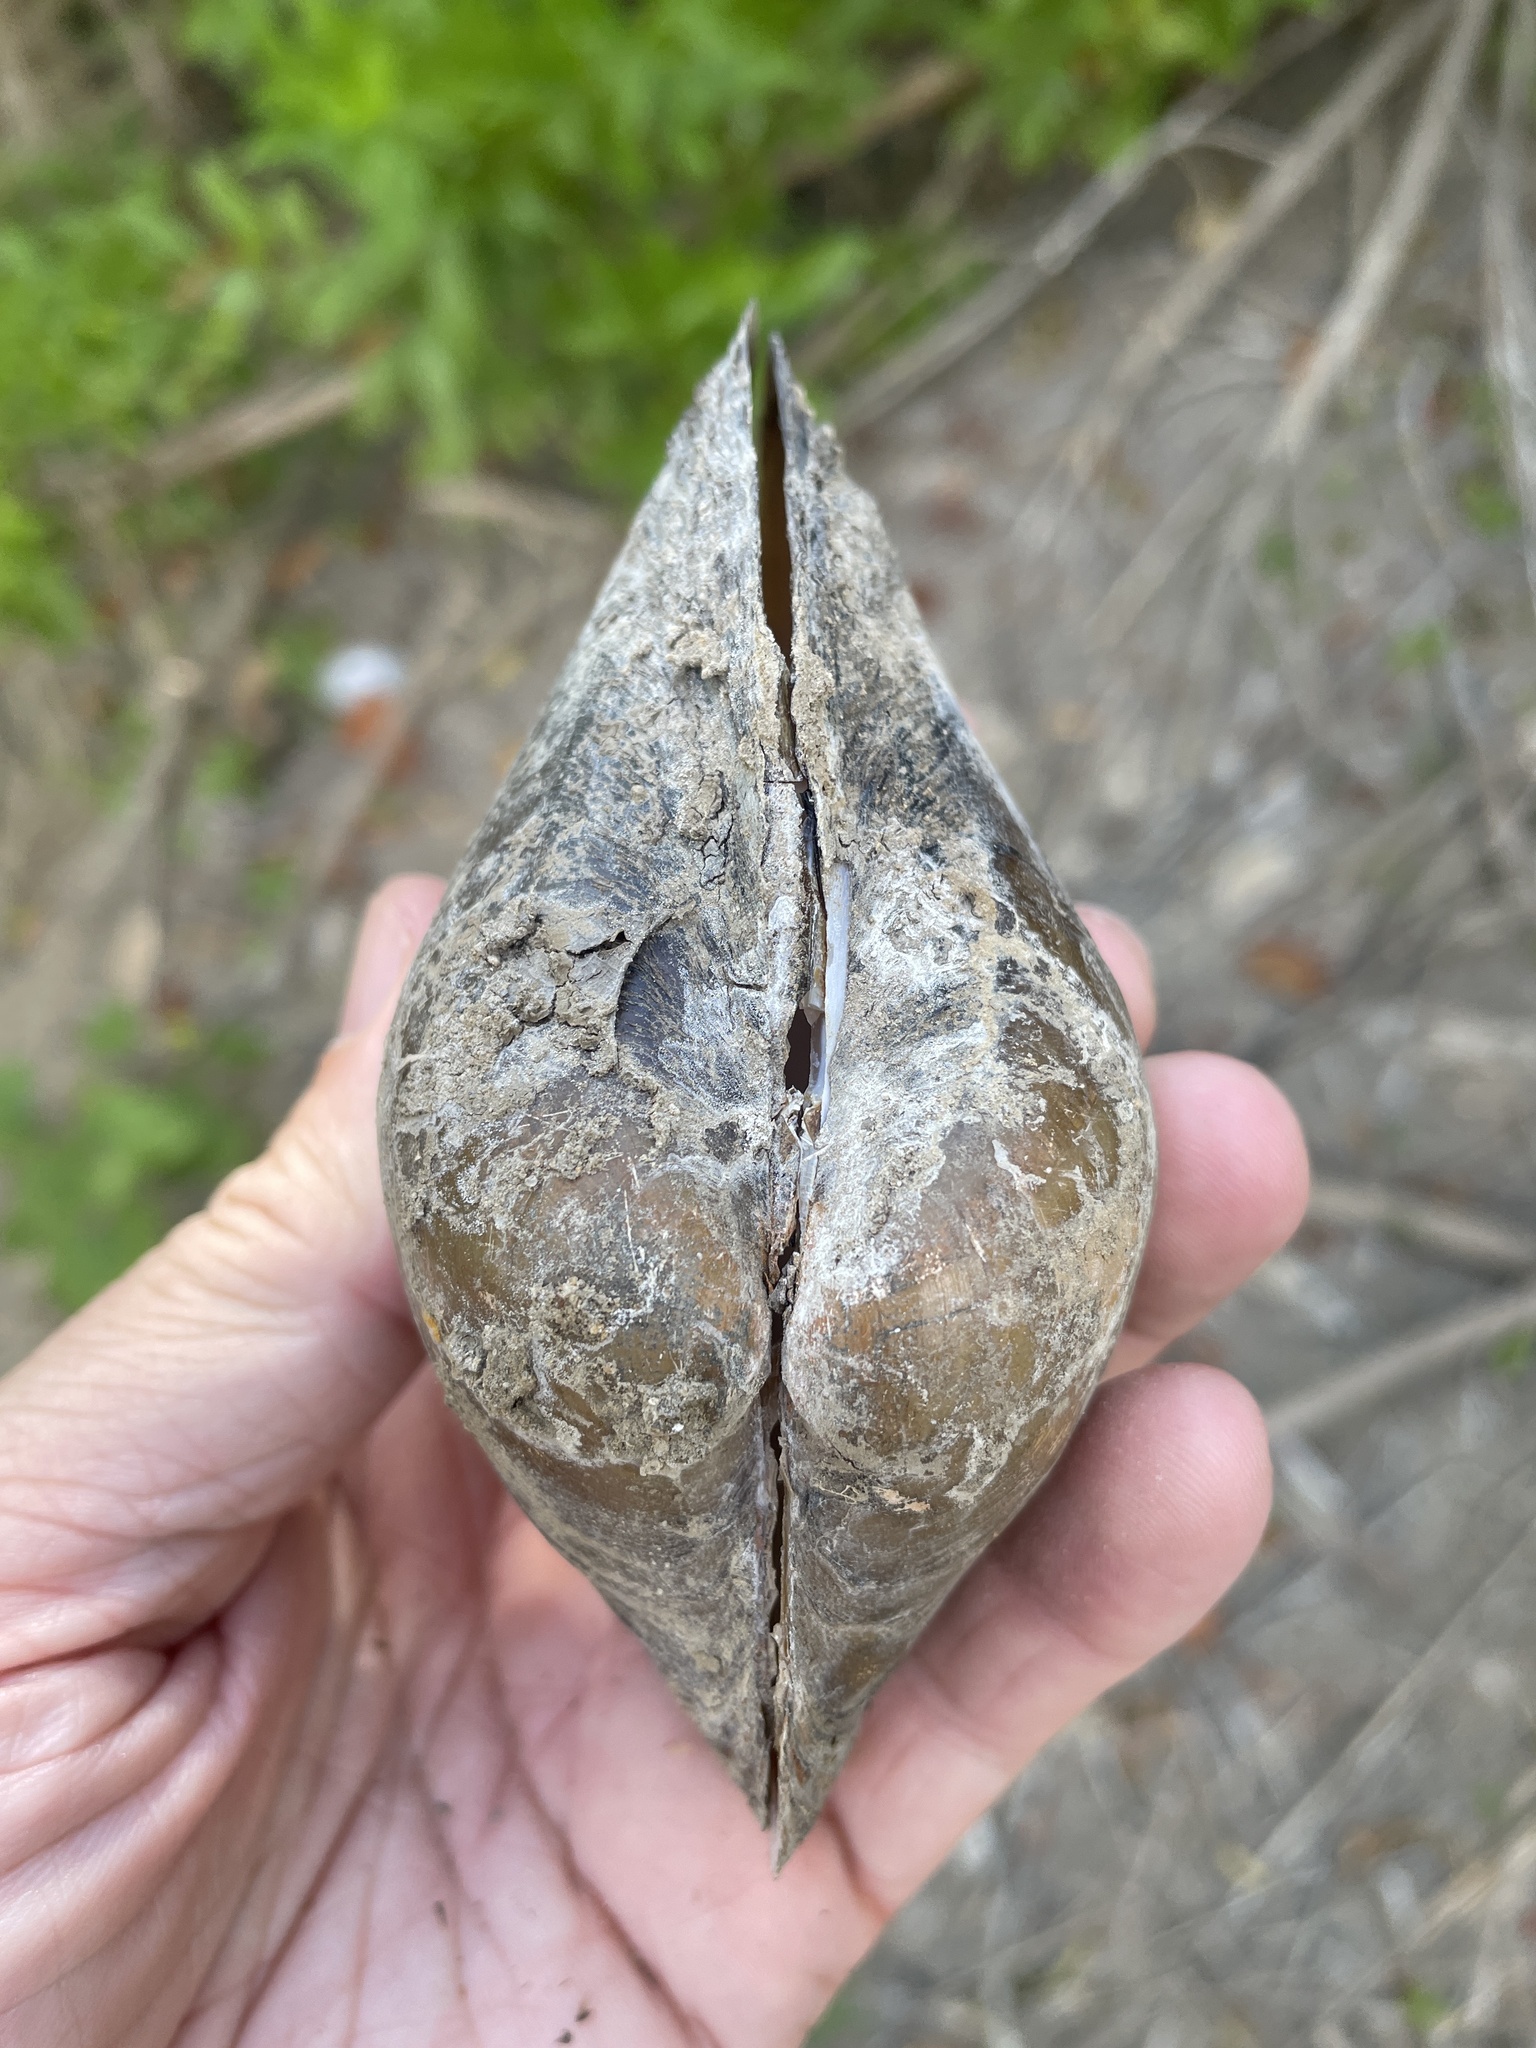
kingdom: Animalia
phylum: Mollusca
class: Bivalvia
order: Unionida
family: Unionidae
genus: Pyganodon
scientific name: Pyganodon grandis
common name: Giant floater
